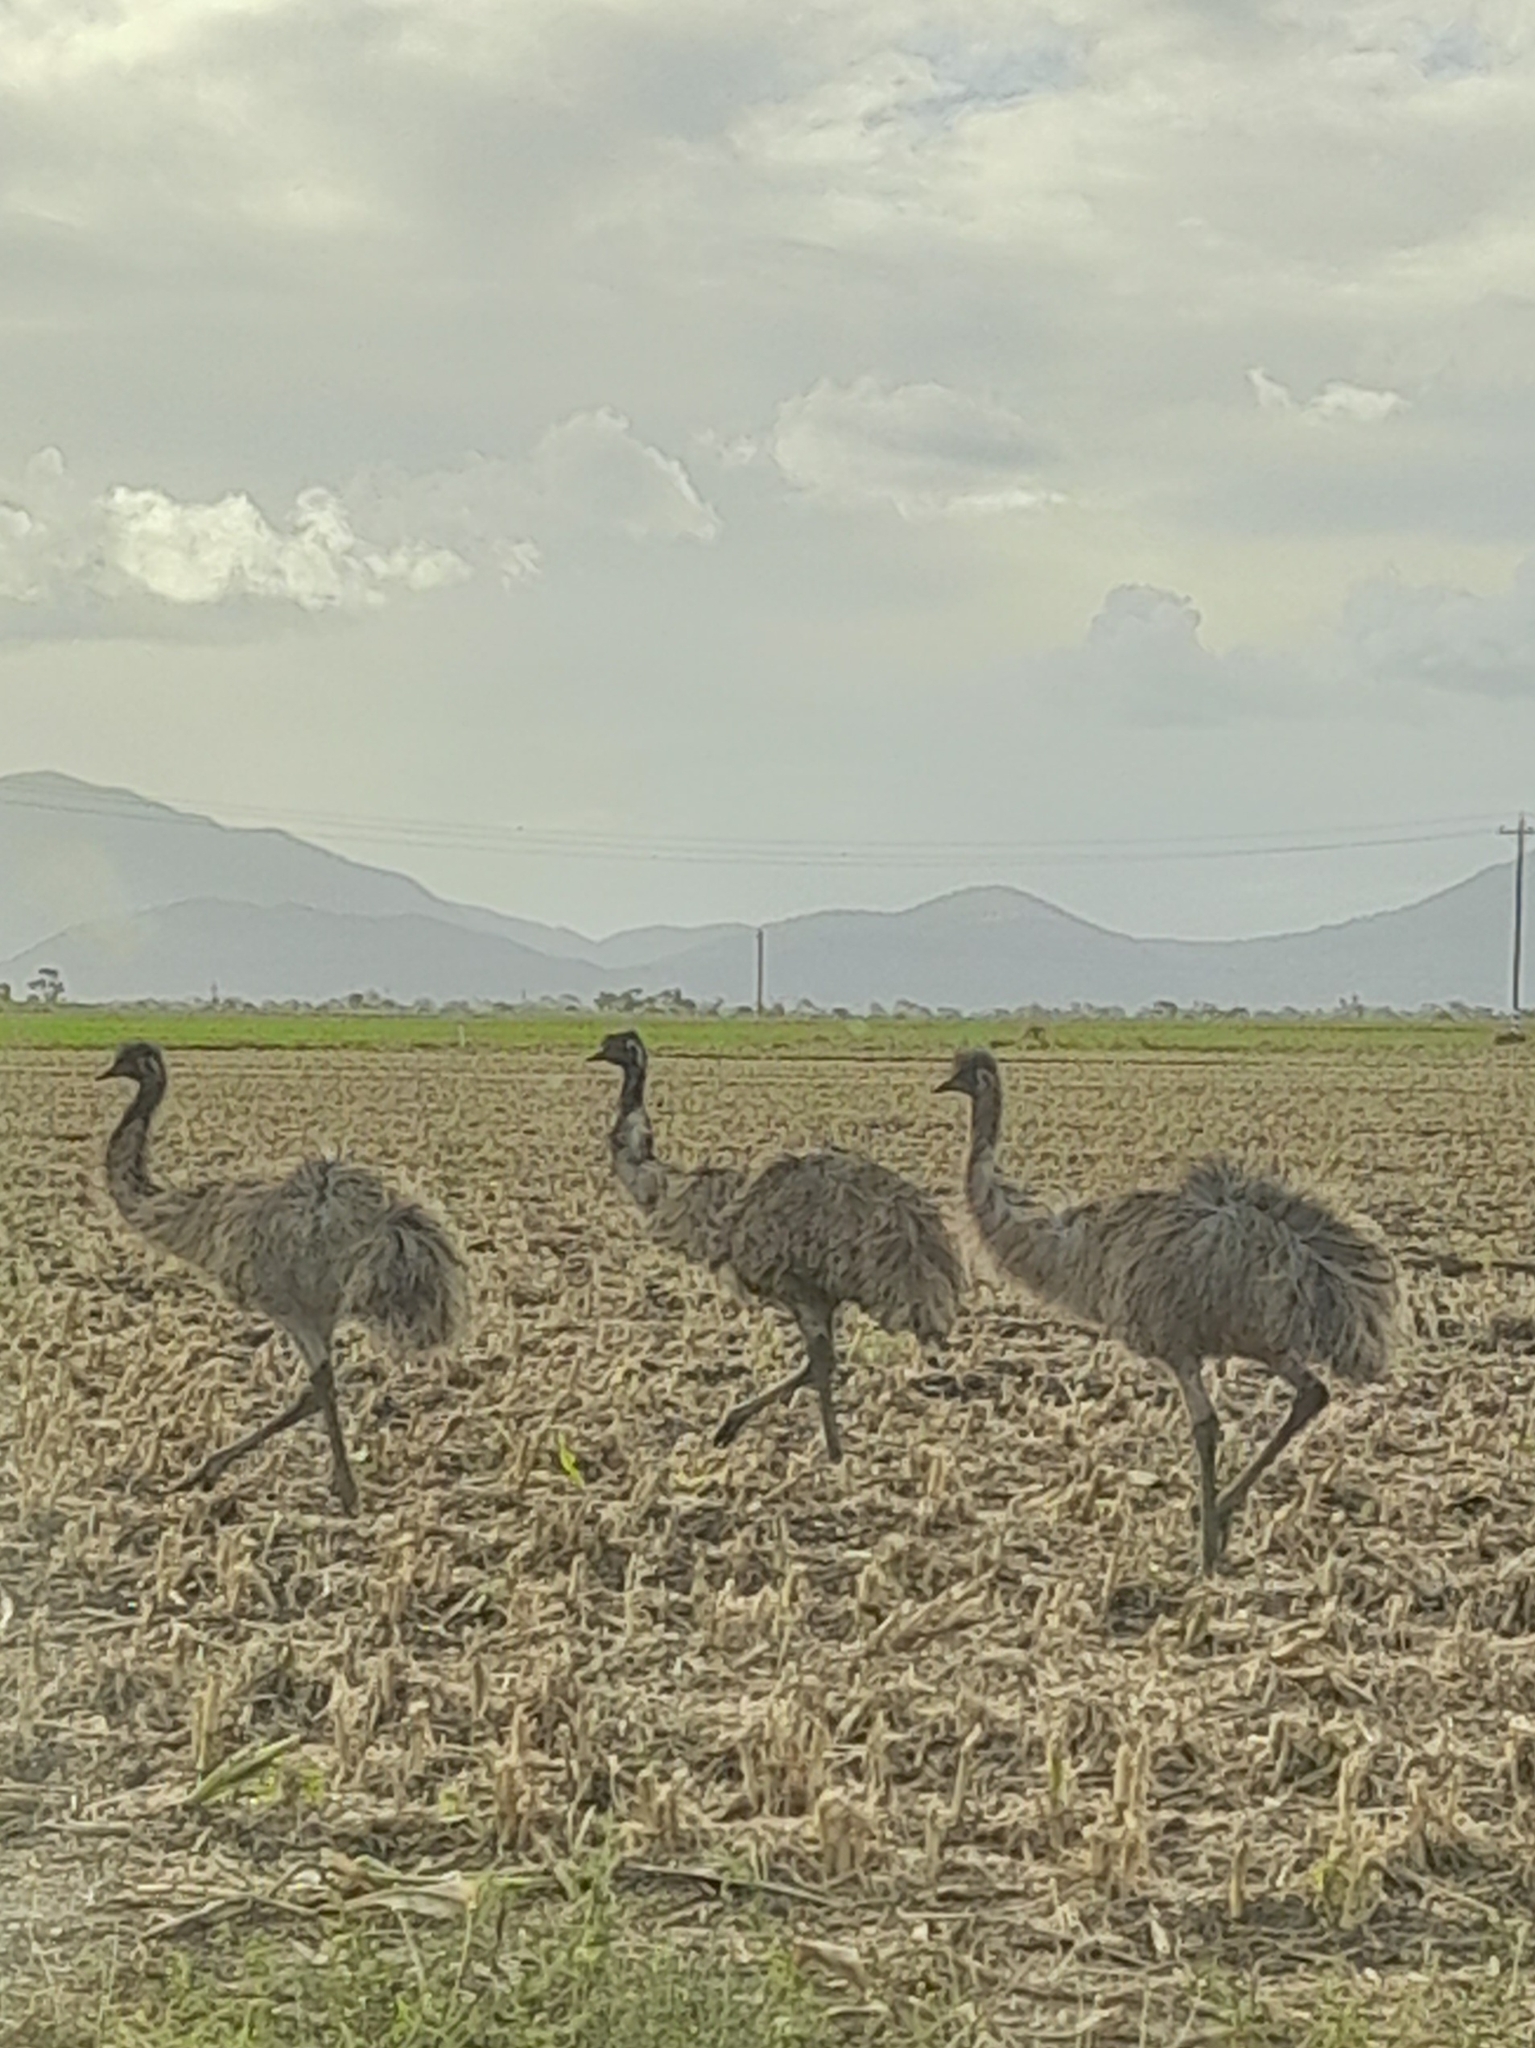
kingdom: Animalia
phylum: Chordata
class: Aves
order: Casuariiformes
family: Dromaiidae
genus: Dromaius
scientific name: Dromaius novaehollandiae
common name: Emu
